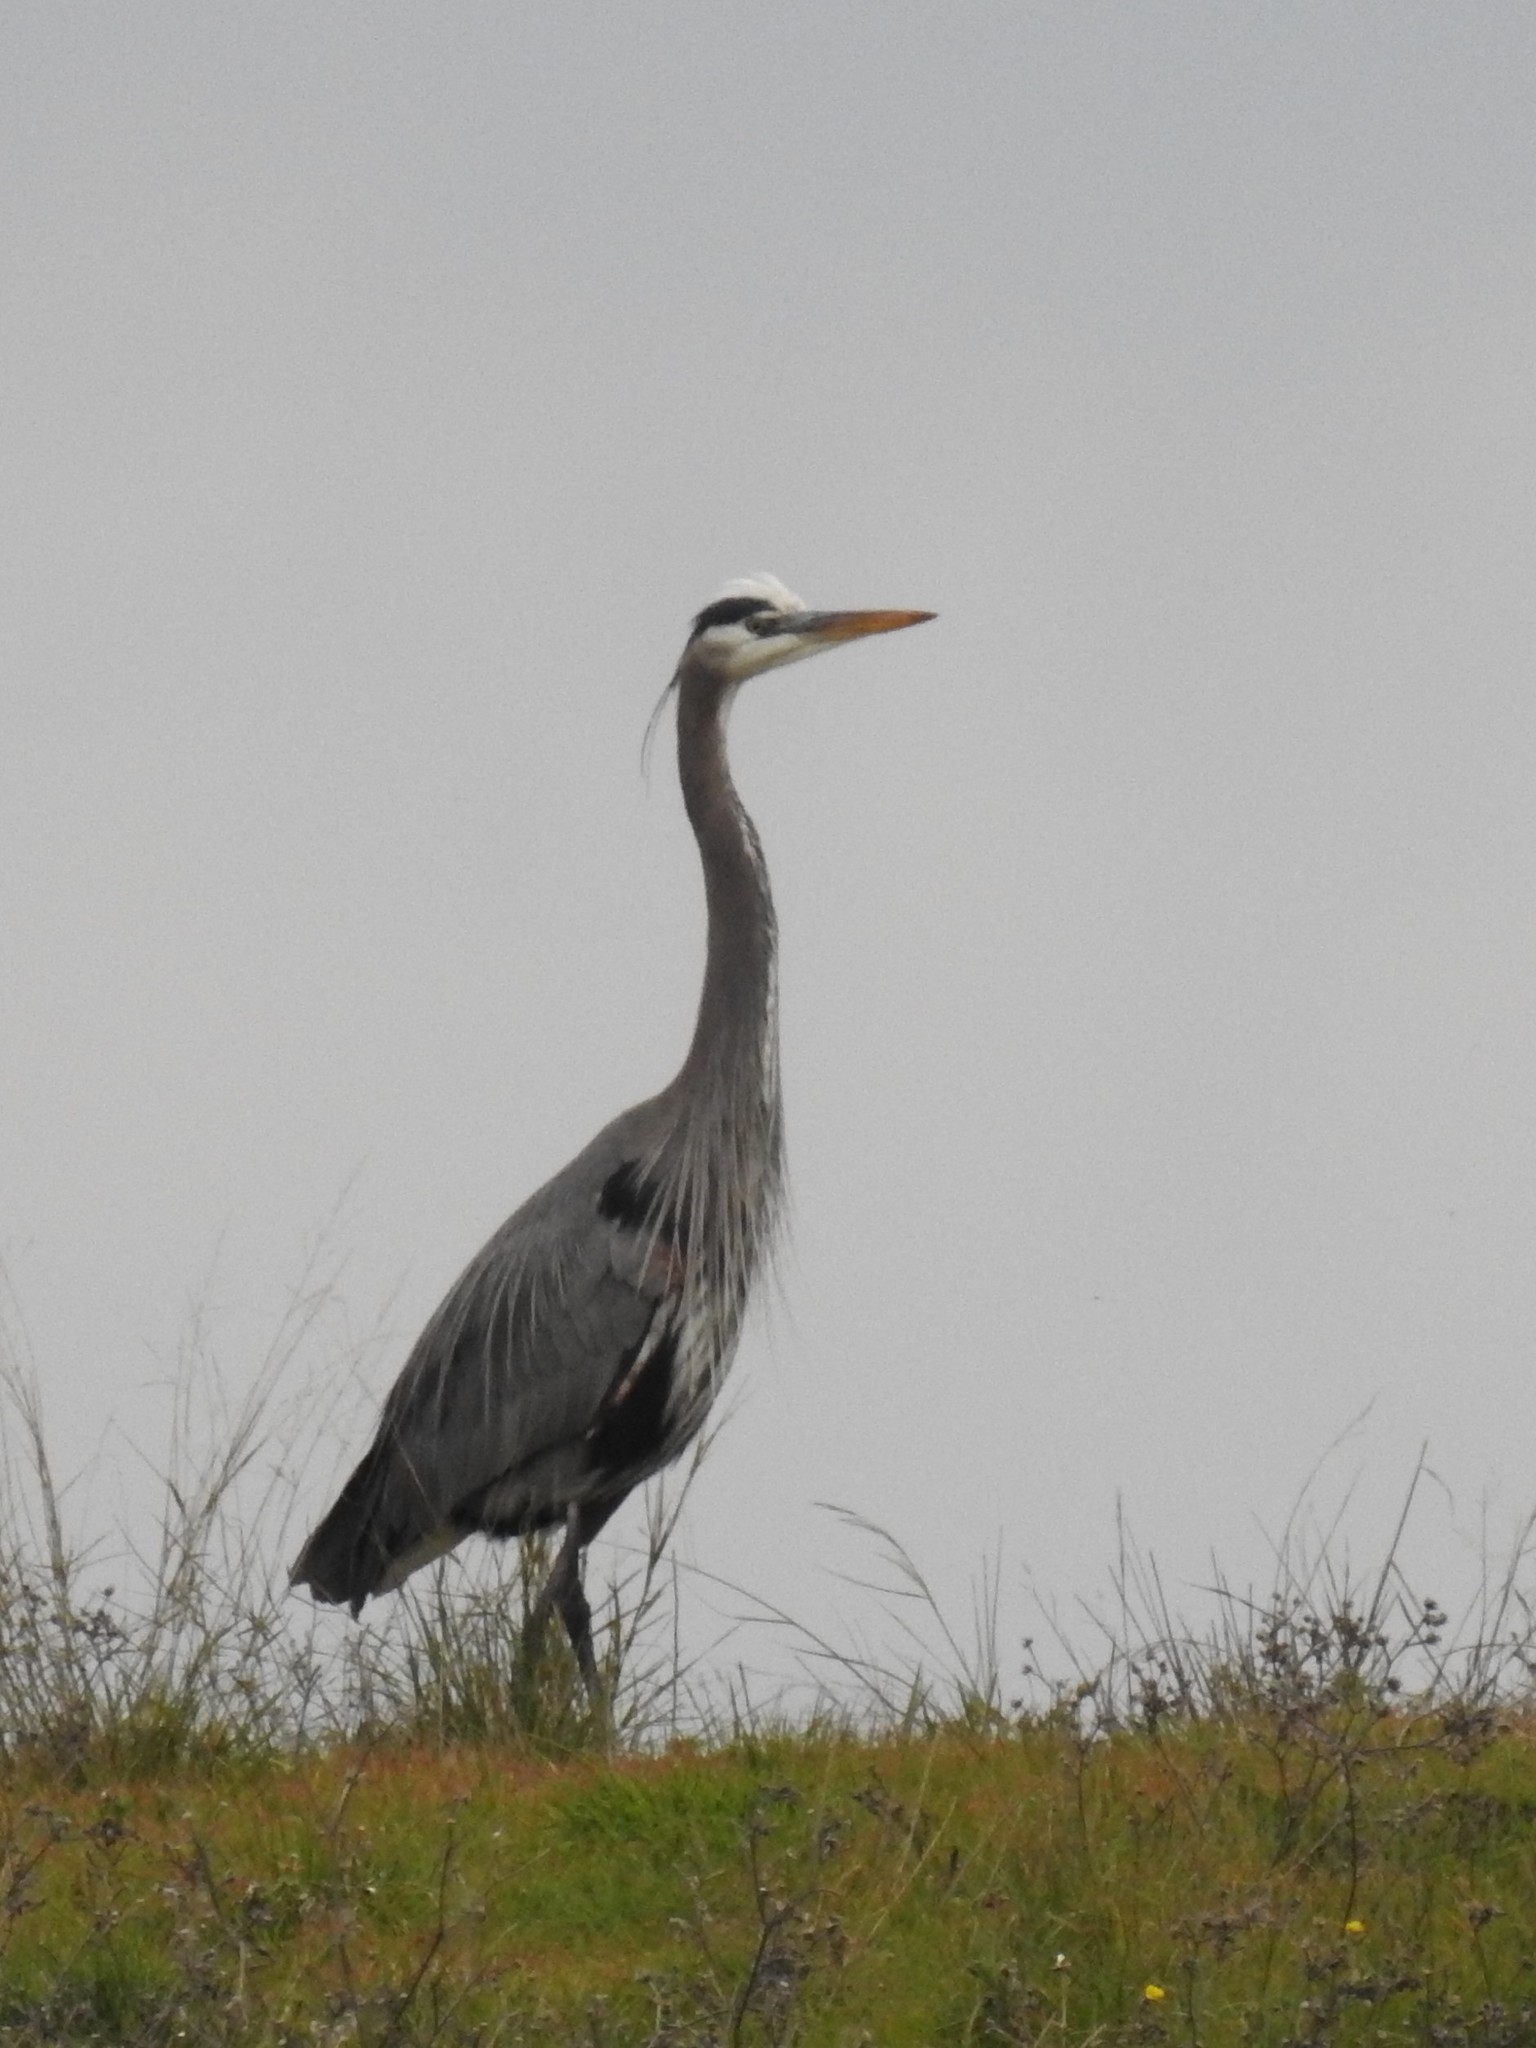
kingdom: Animalia
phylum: Chordata
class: Aves
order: Pelecaniformes
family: Ardeidae
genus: Ardea
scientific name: Ardea herodias
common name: Great blue heron
